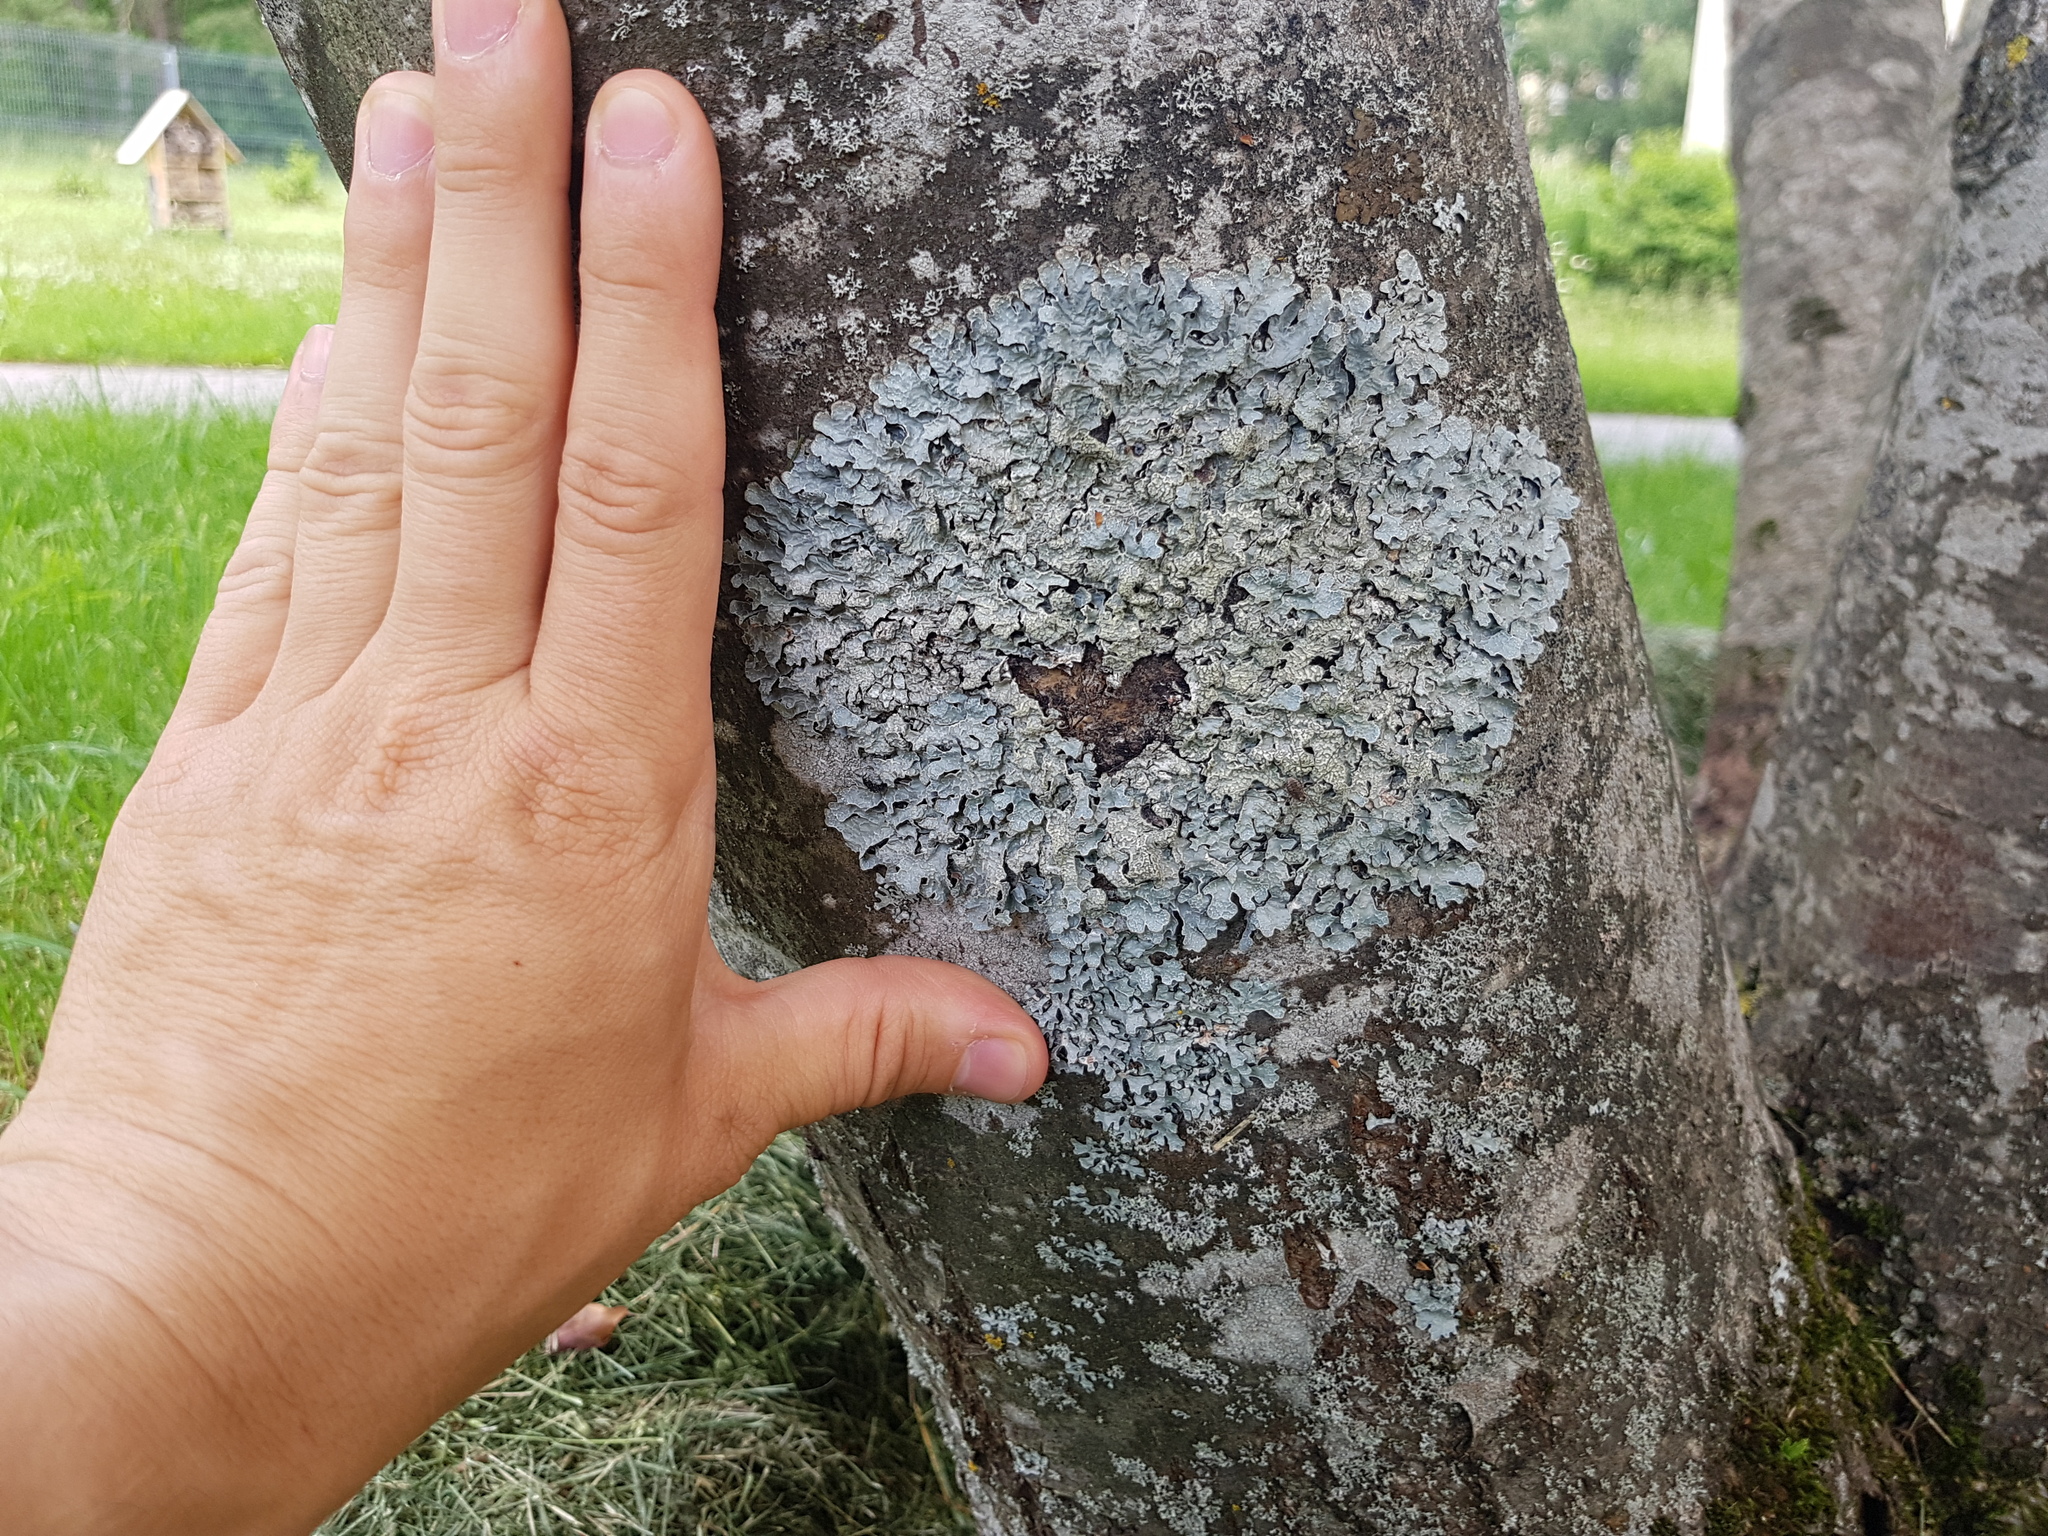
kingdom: Fungi
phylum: Ascomycota
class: Lecanoromycetes
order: Lecanorales
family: Parmeliaceae
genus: Parmelia
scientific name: Parmelia sulcata
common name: Netted shield lichen
